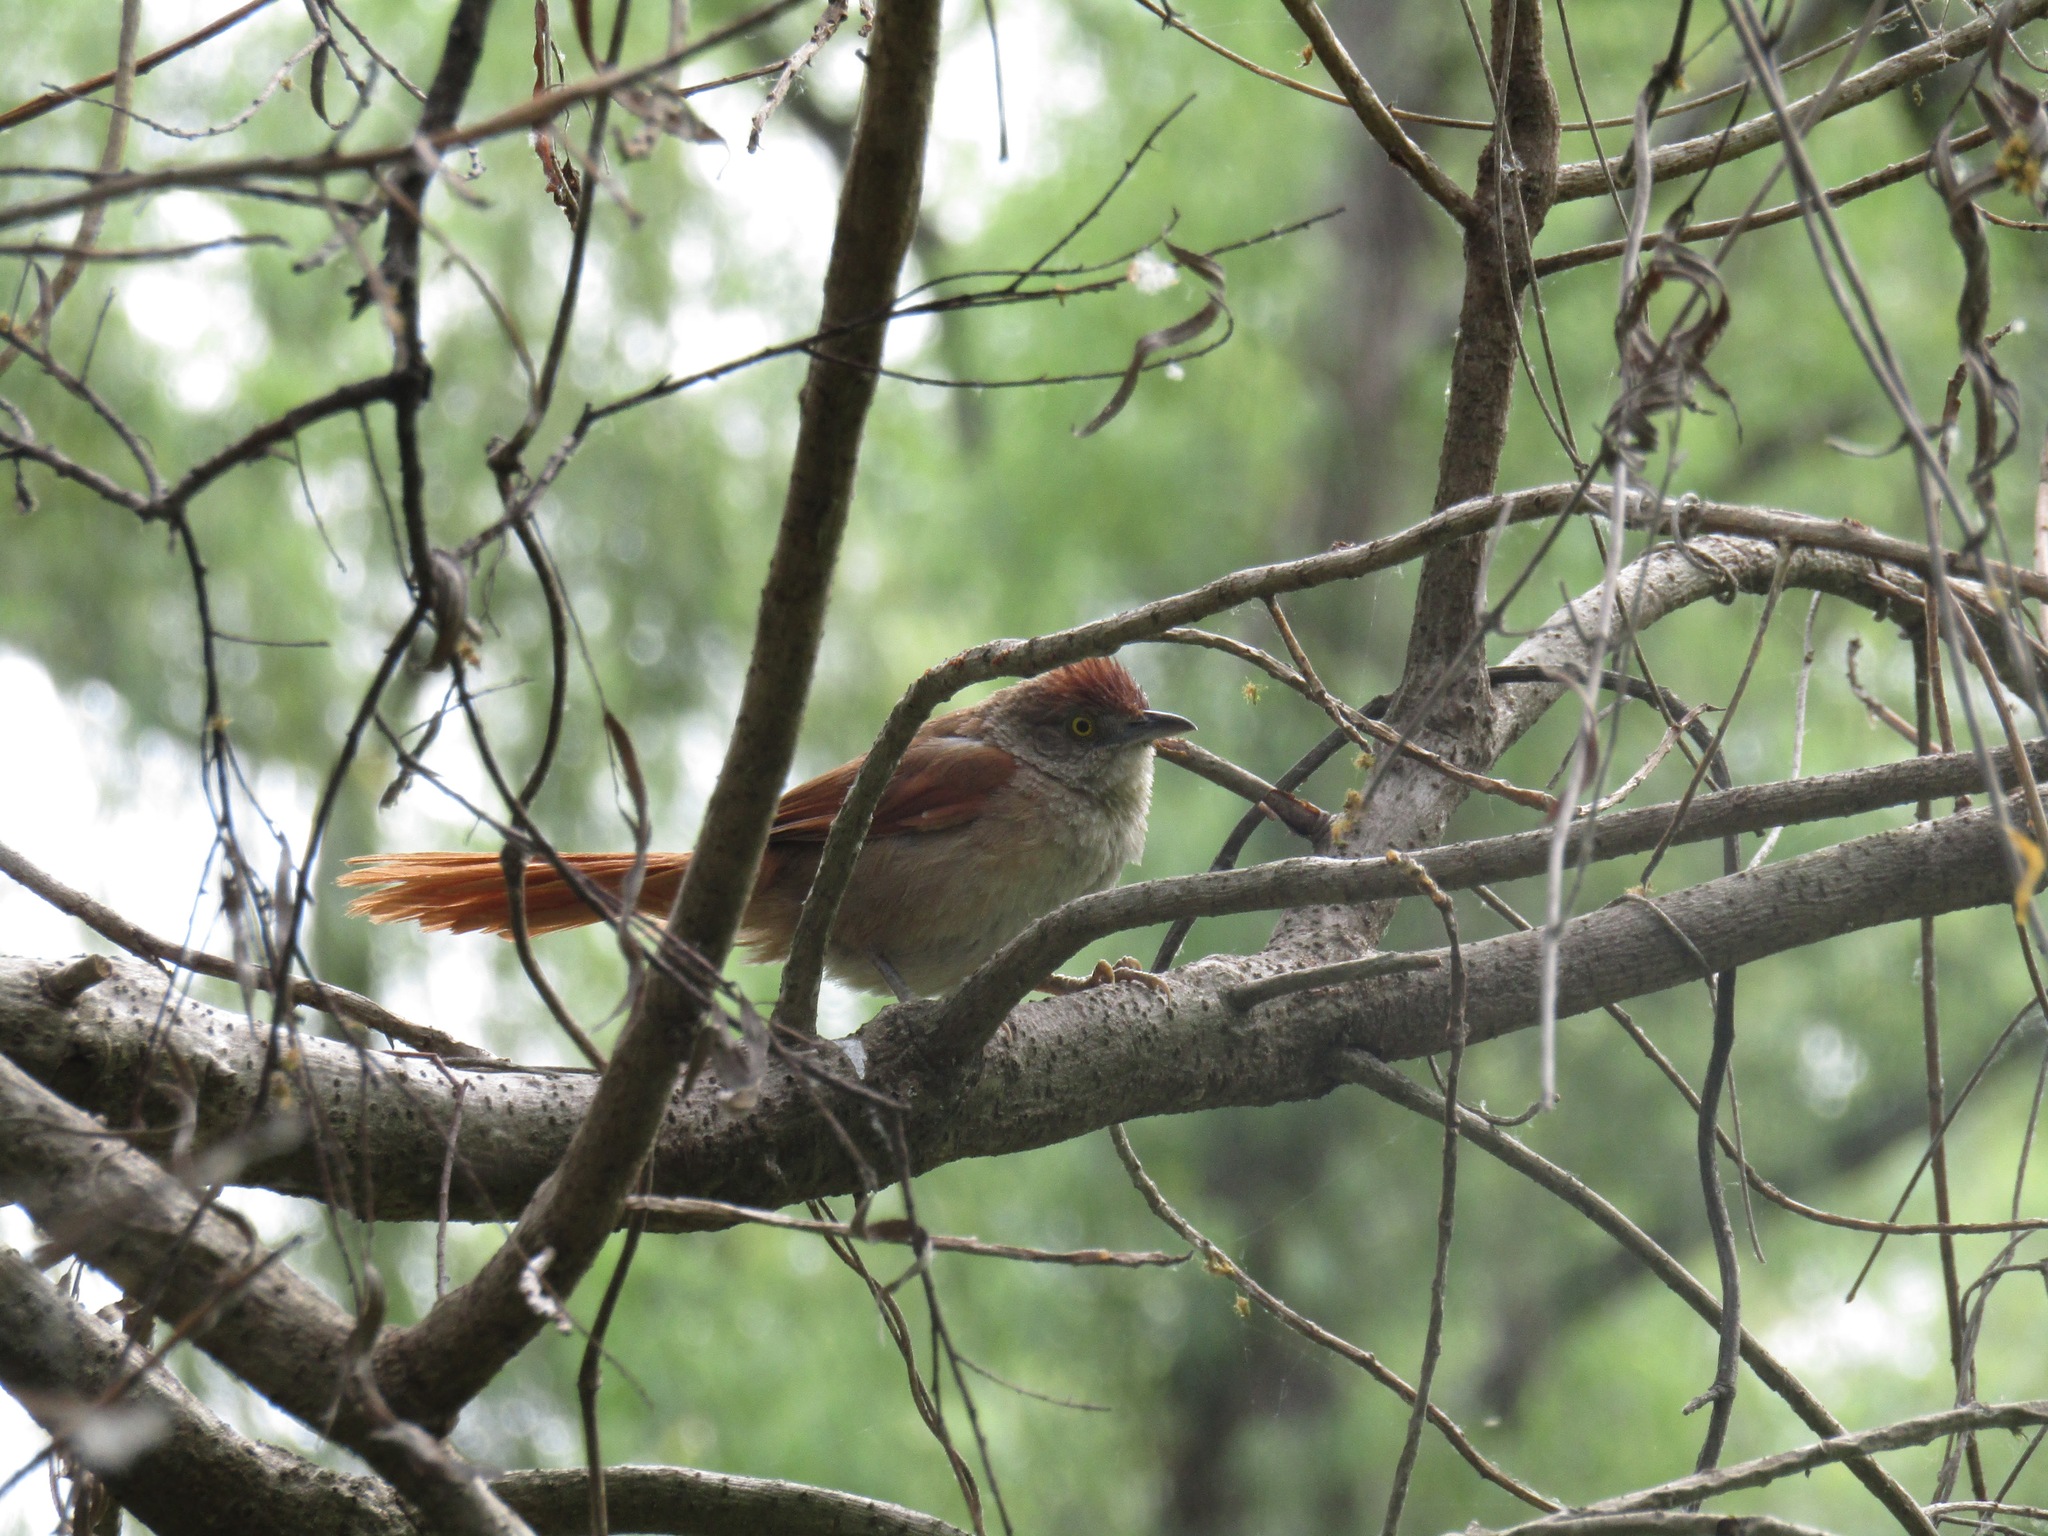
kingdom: Animalia
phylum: Chordata
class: Aves
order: Passeriformes
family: Furnariidae
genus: Phacellodomus
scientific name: Phacellodomus ruber
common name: Greater thornbird
